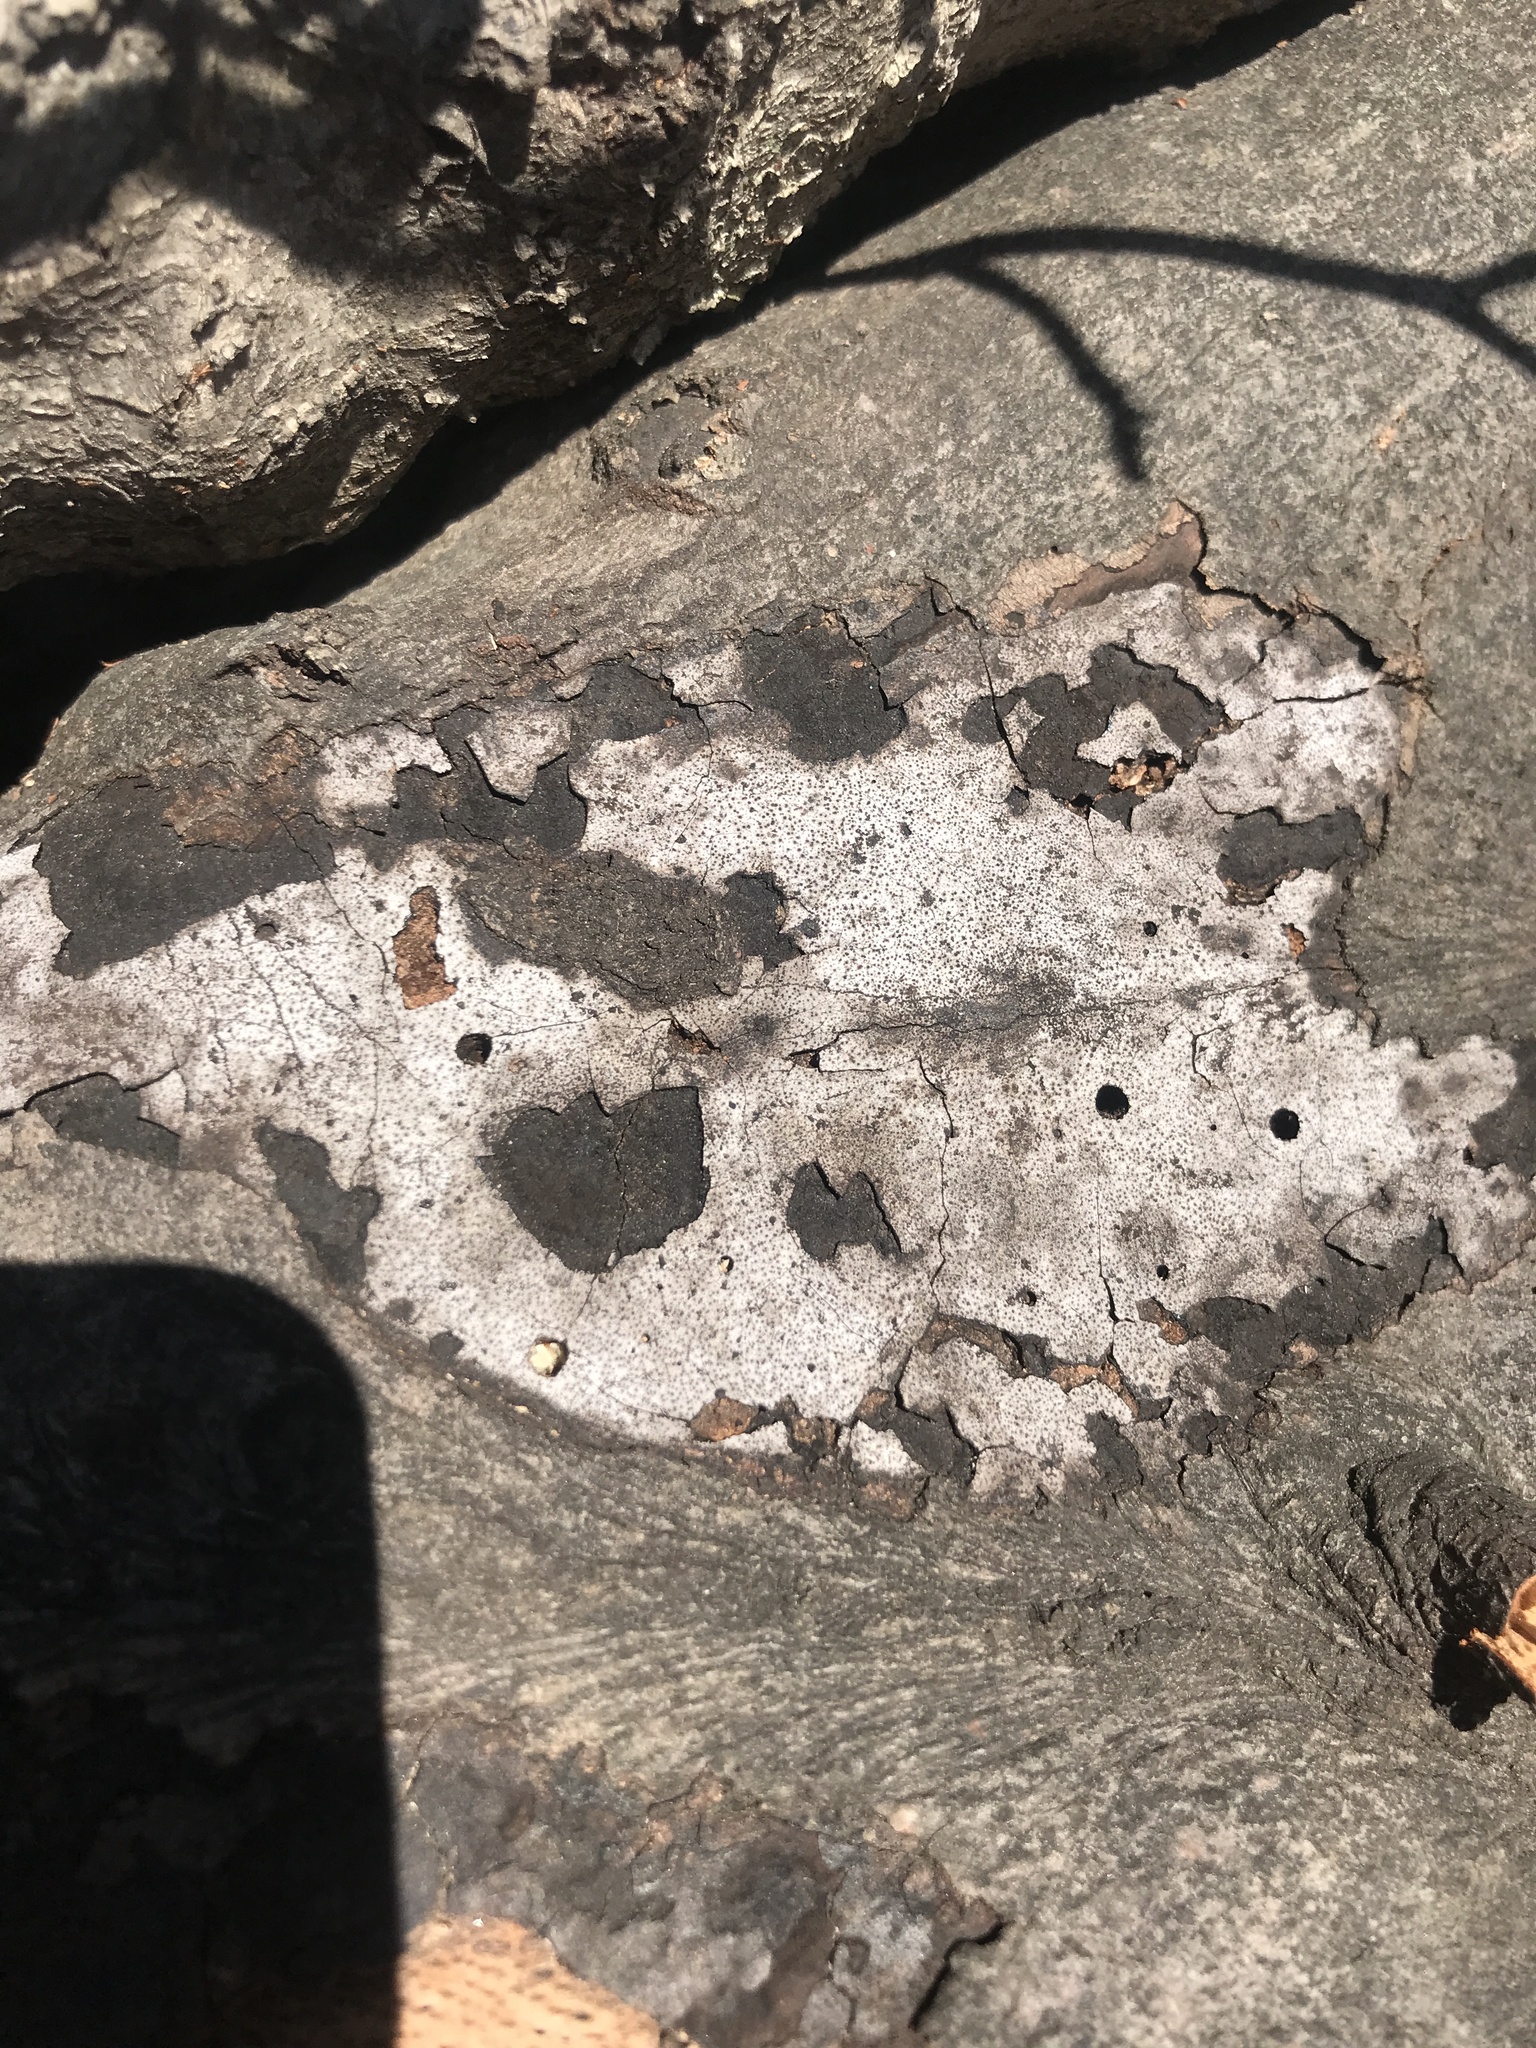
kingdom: Fungi
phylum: Ascomycota
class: Sordariomycetes
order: Xylariales
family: Graphostromataceae
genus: Biscogniauxia
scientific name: Biscogniauxia atropunctata
